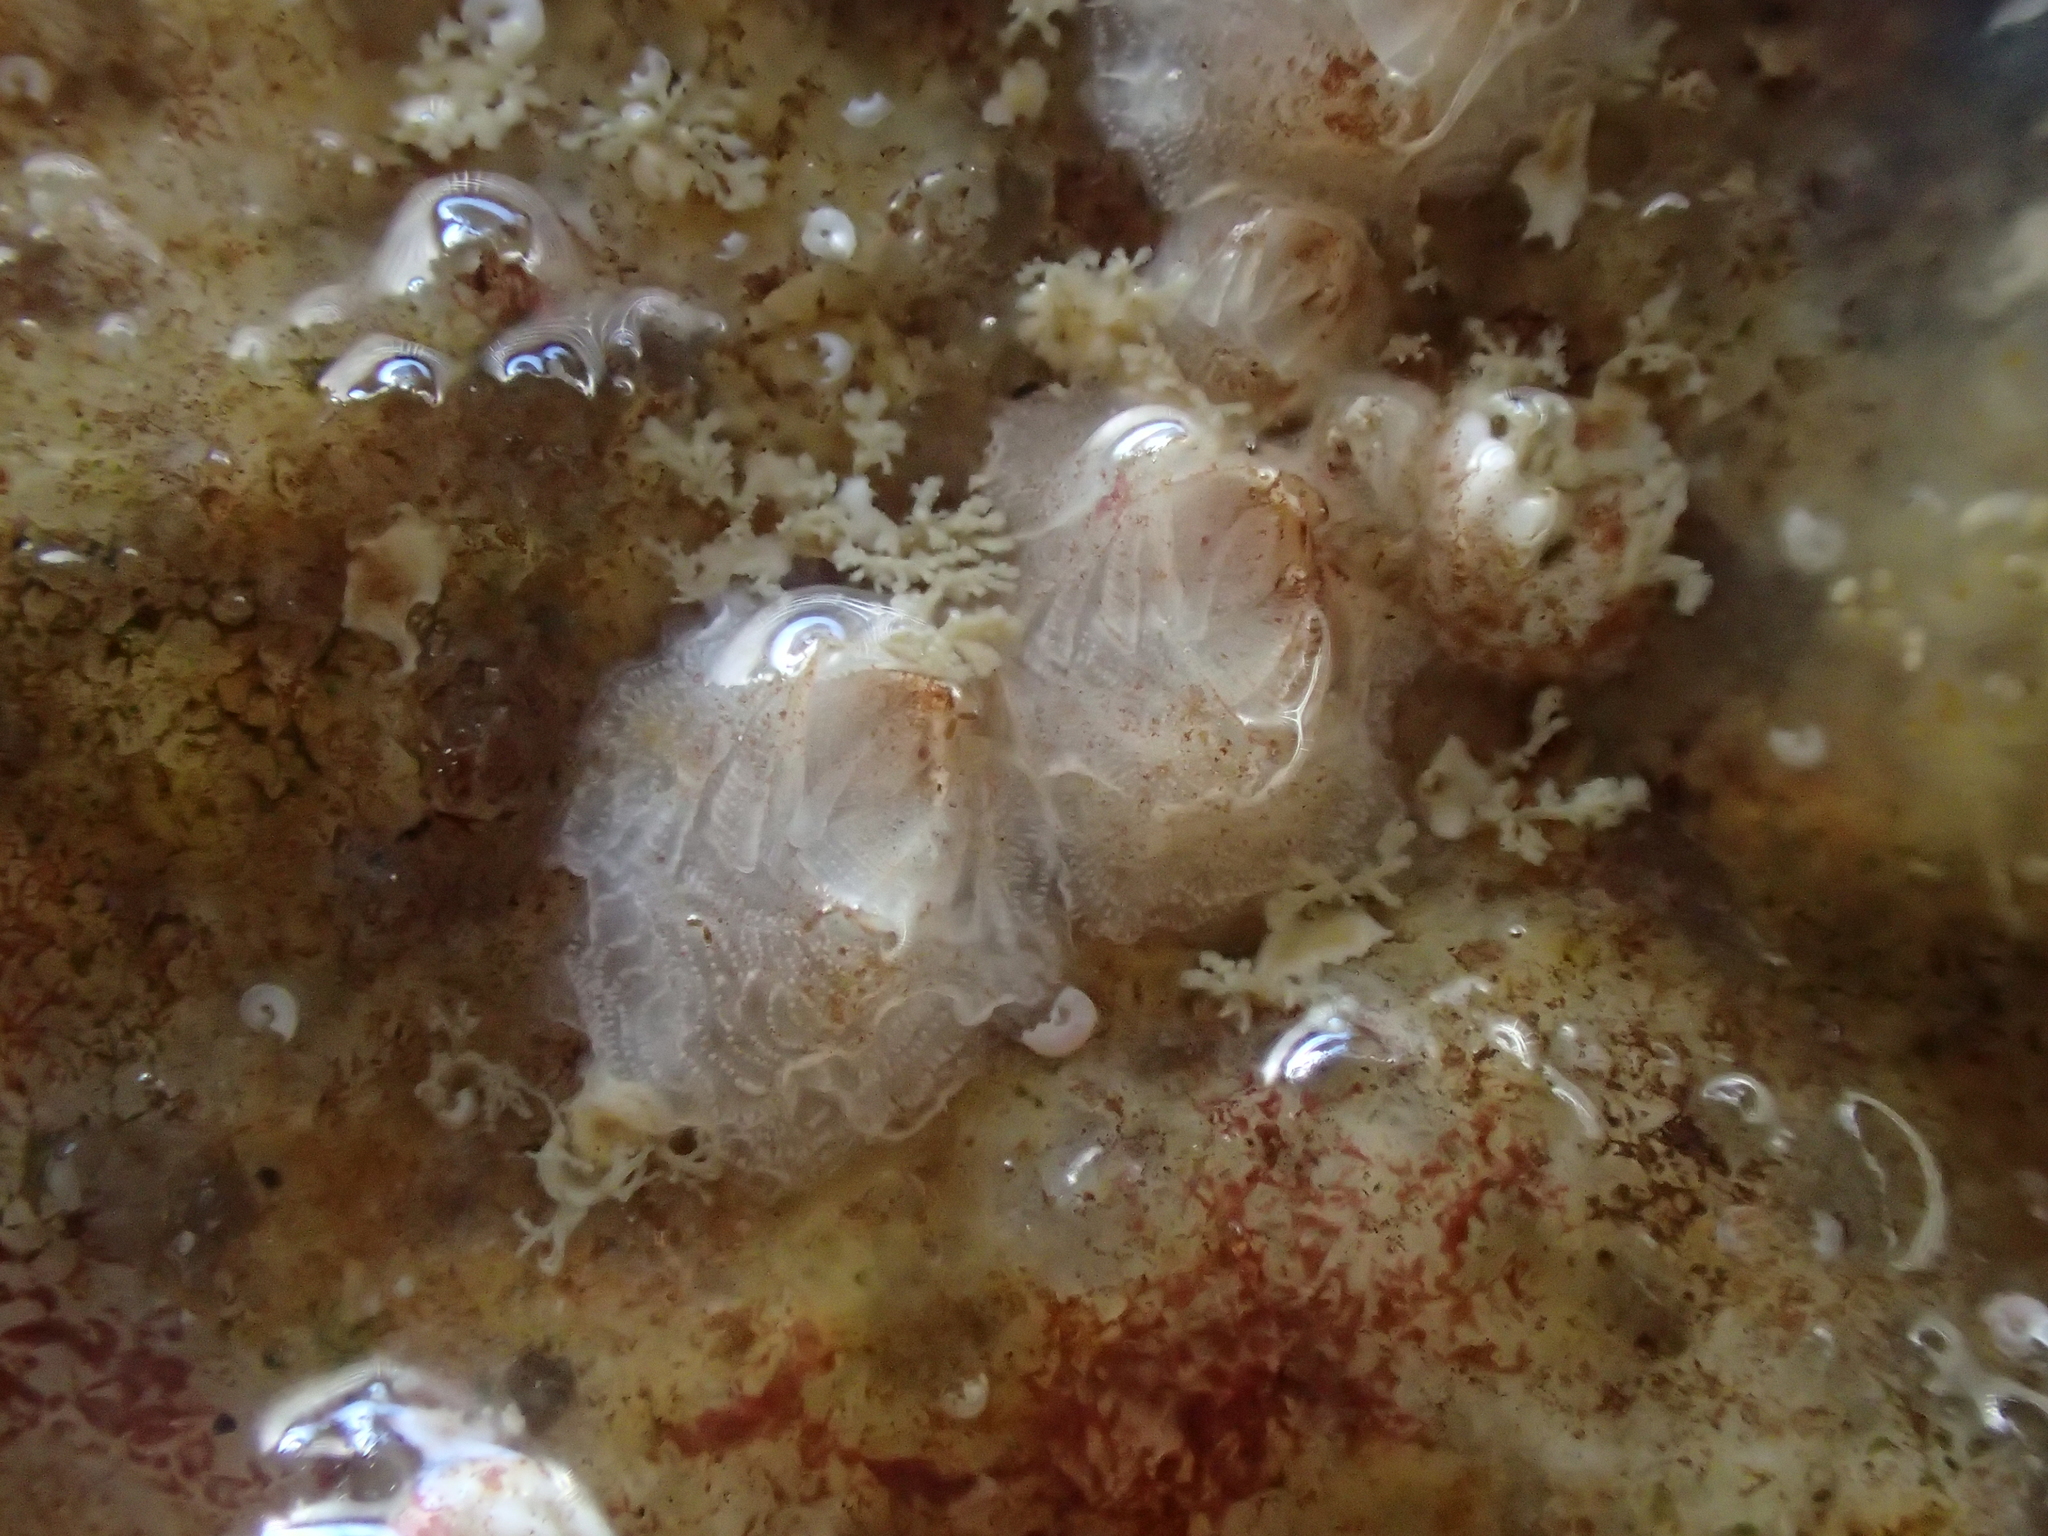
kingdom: Animalia
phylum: Arthropoda
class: Maxillopoda
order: Sessilia
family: Verrucidae
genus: Verruca
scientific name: Verruca stroemia
